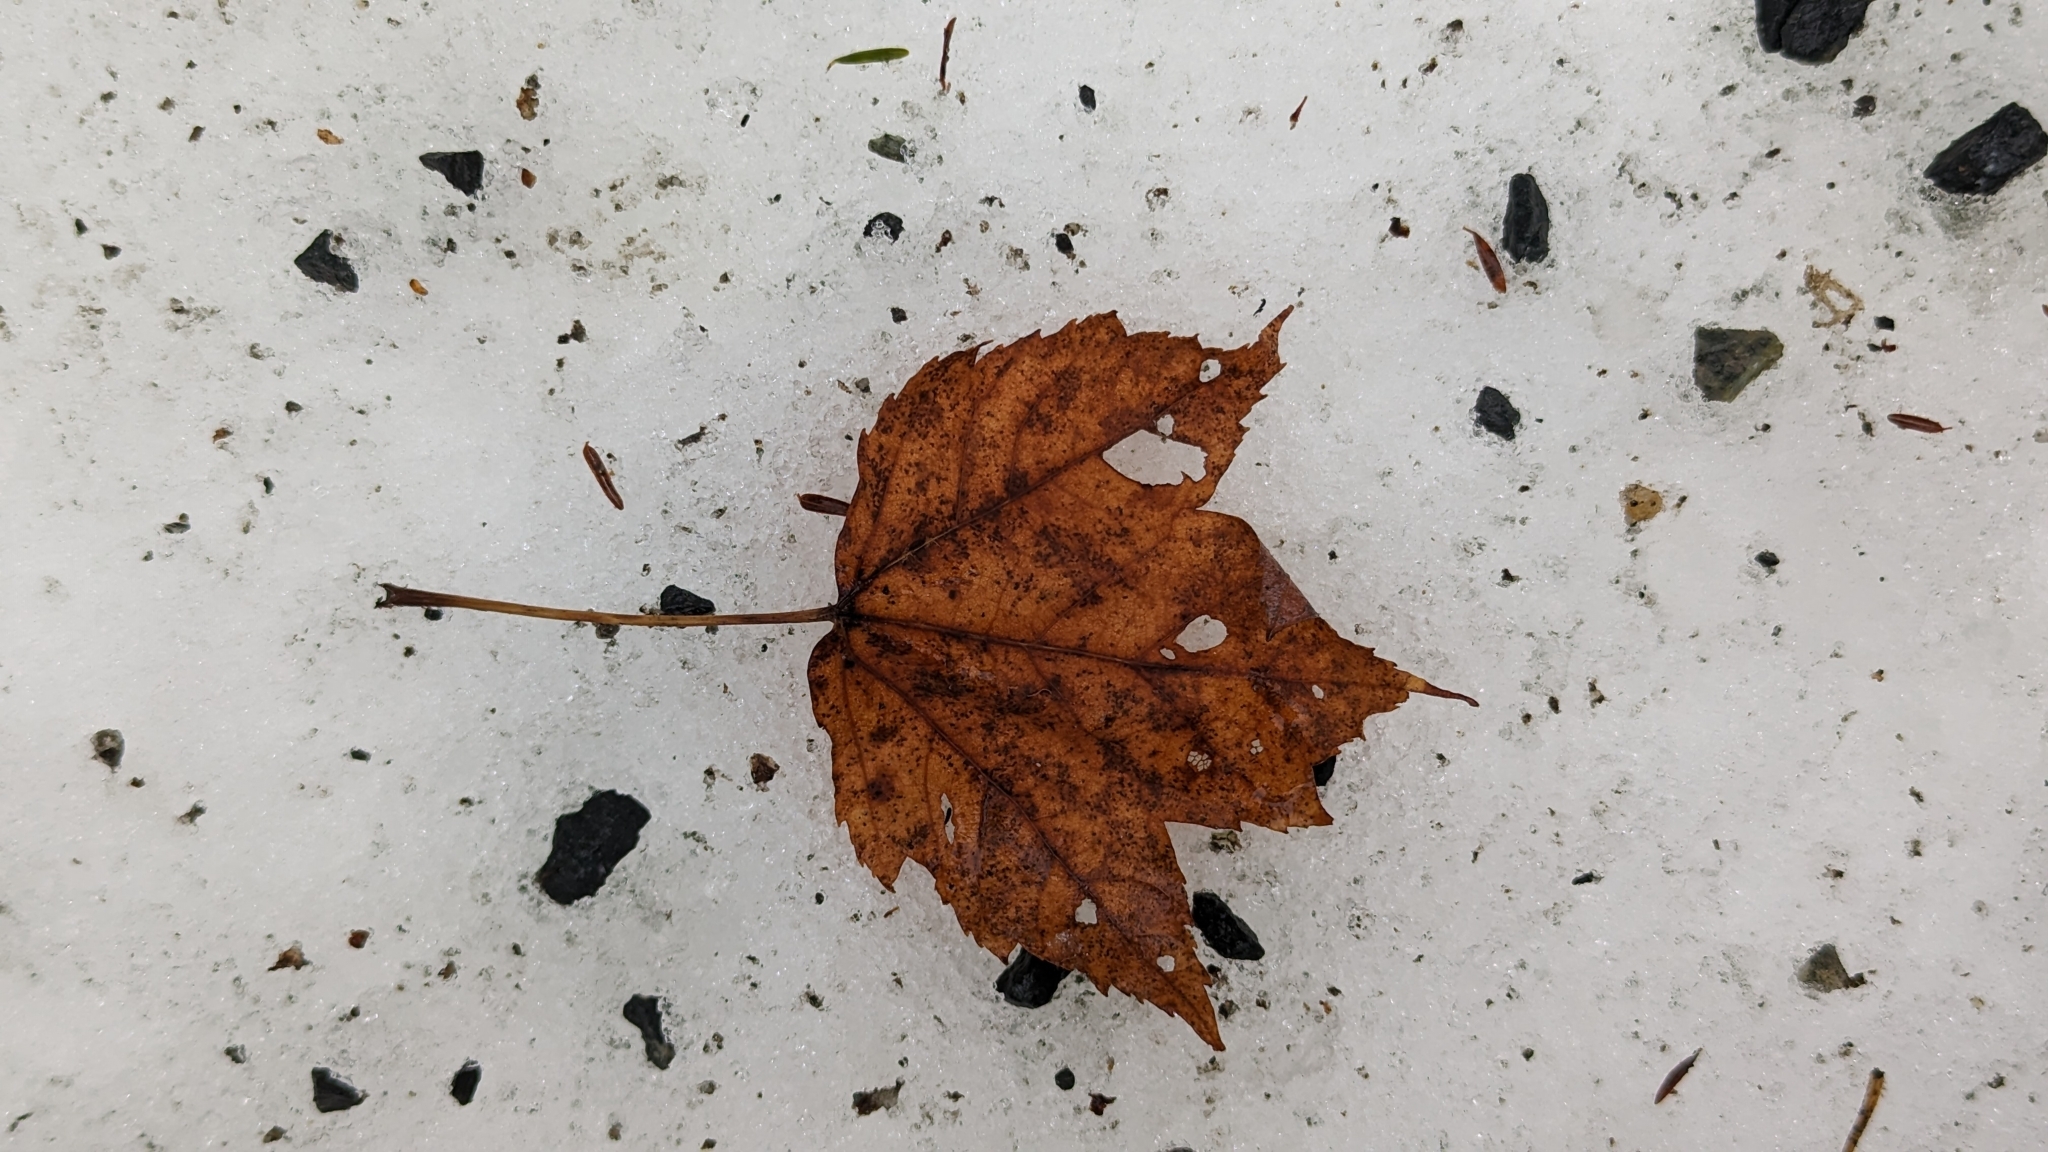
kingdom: Plantae
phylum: Tracheophyta
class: Magnoliopsida
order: Sapindales
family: Sapindaceae
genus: Acer
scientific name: Acer rubrum
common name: Red maple
